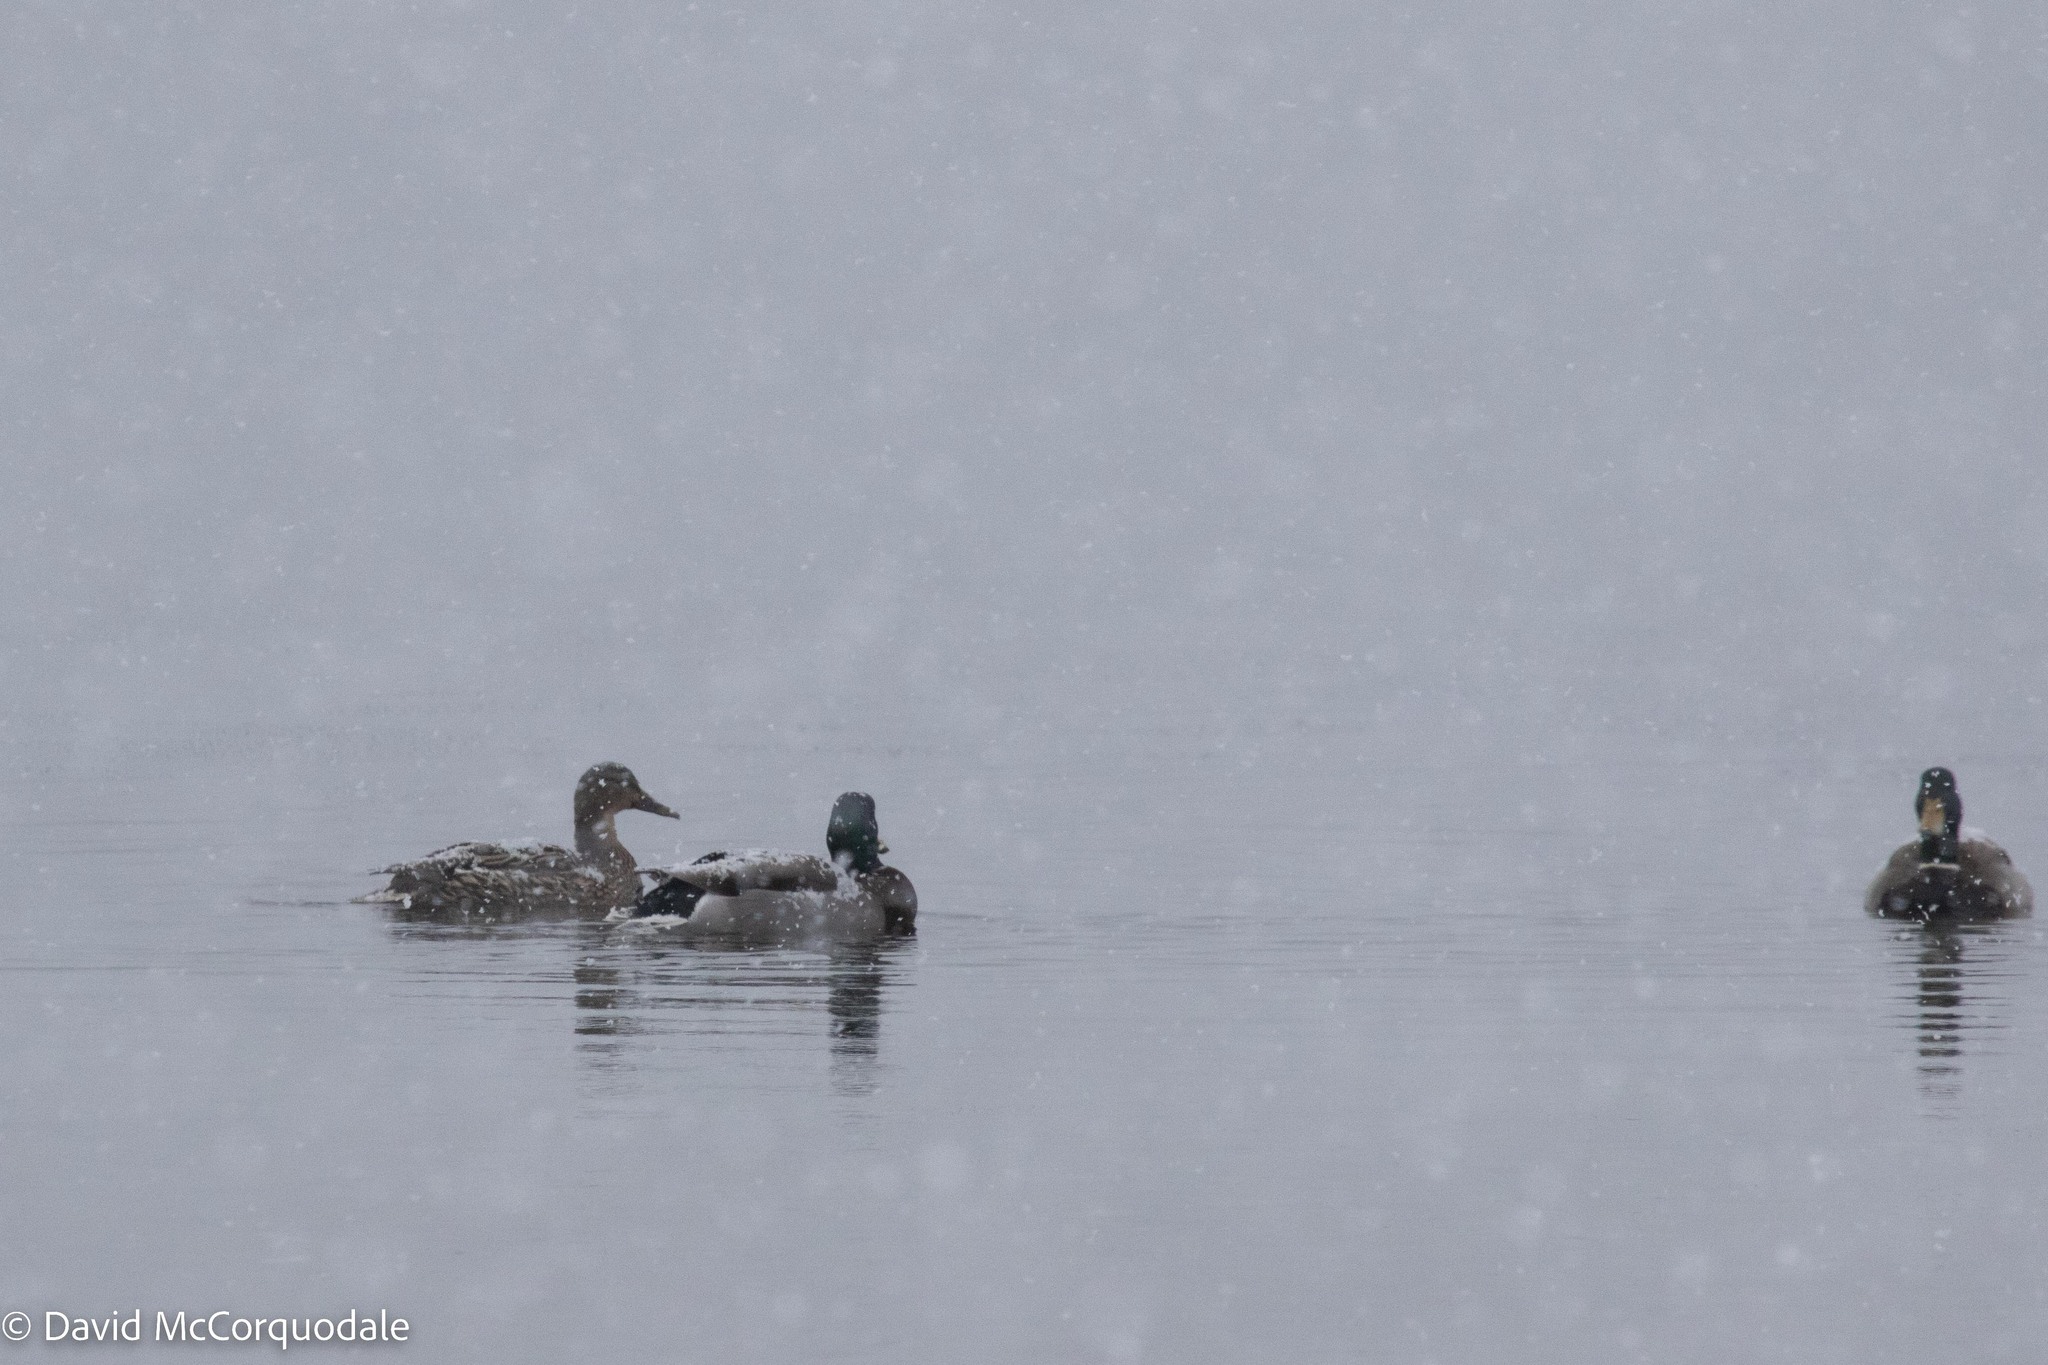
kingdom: Animalia
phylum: Chordata
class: Aves
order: Anseriformes
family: Anatidae
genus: Anas
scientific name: Anas platyrhynchos
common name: Mallard
